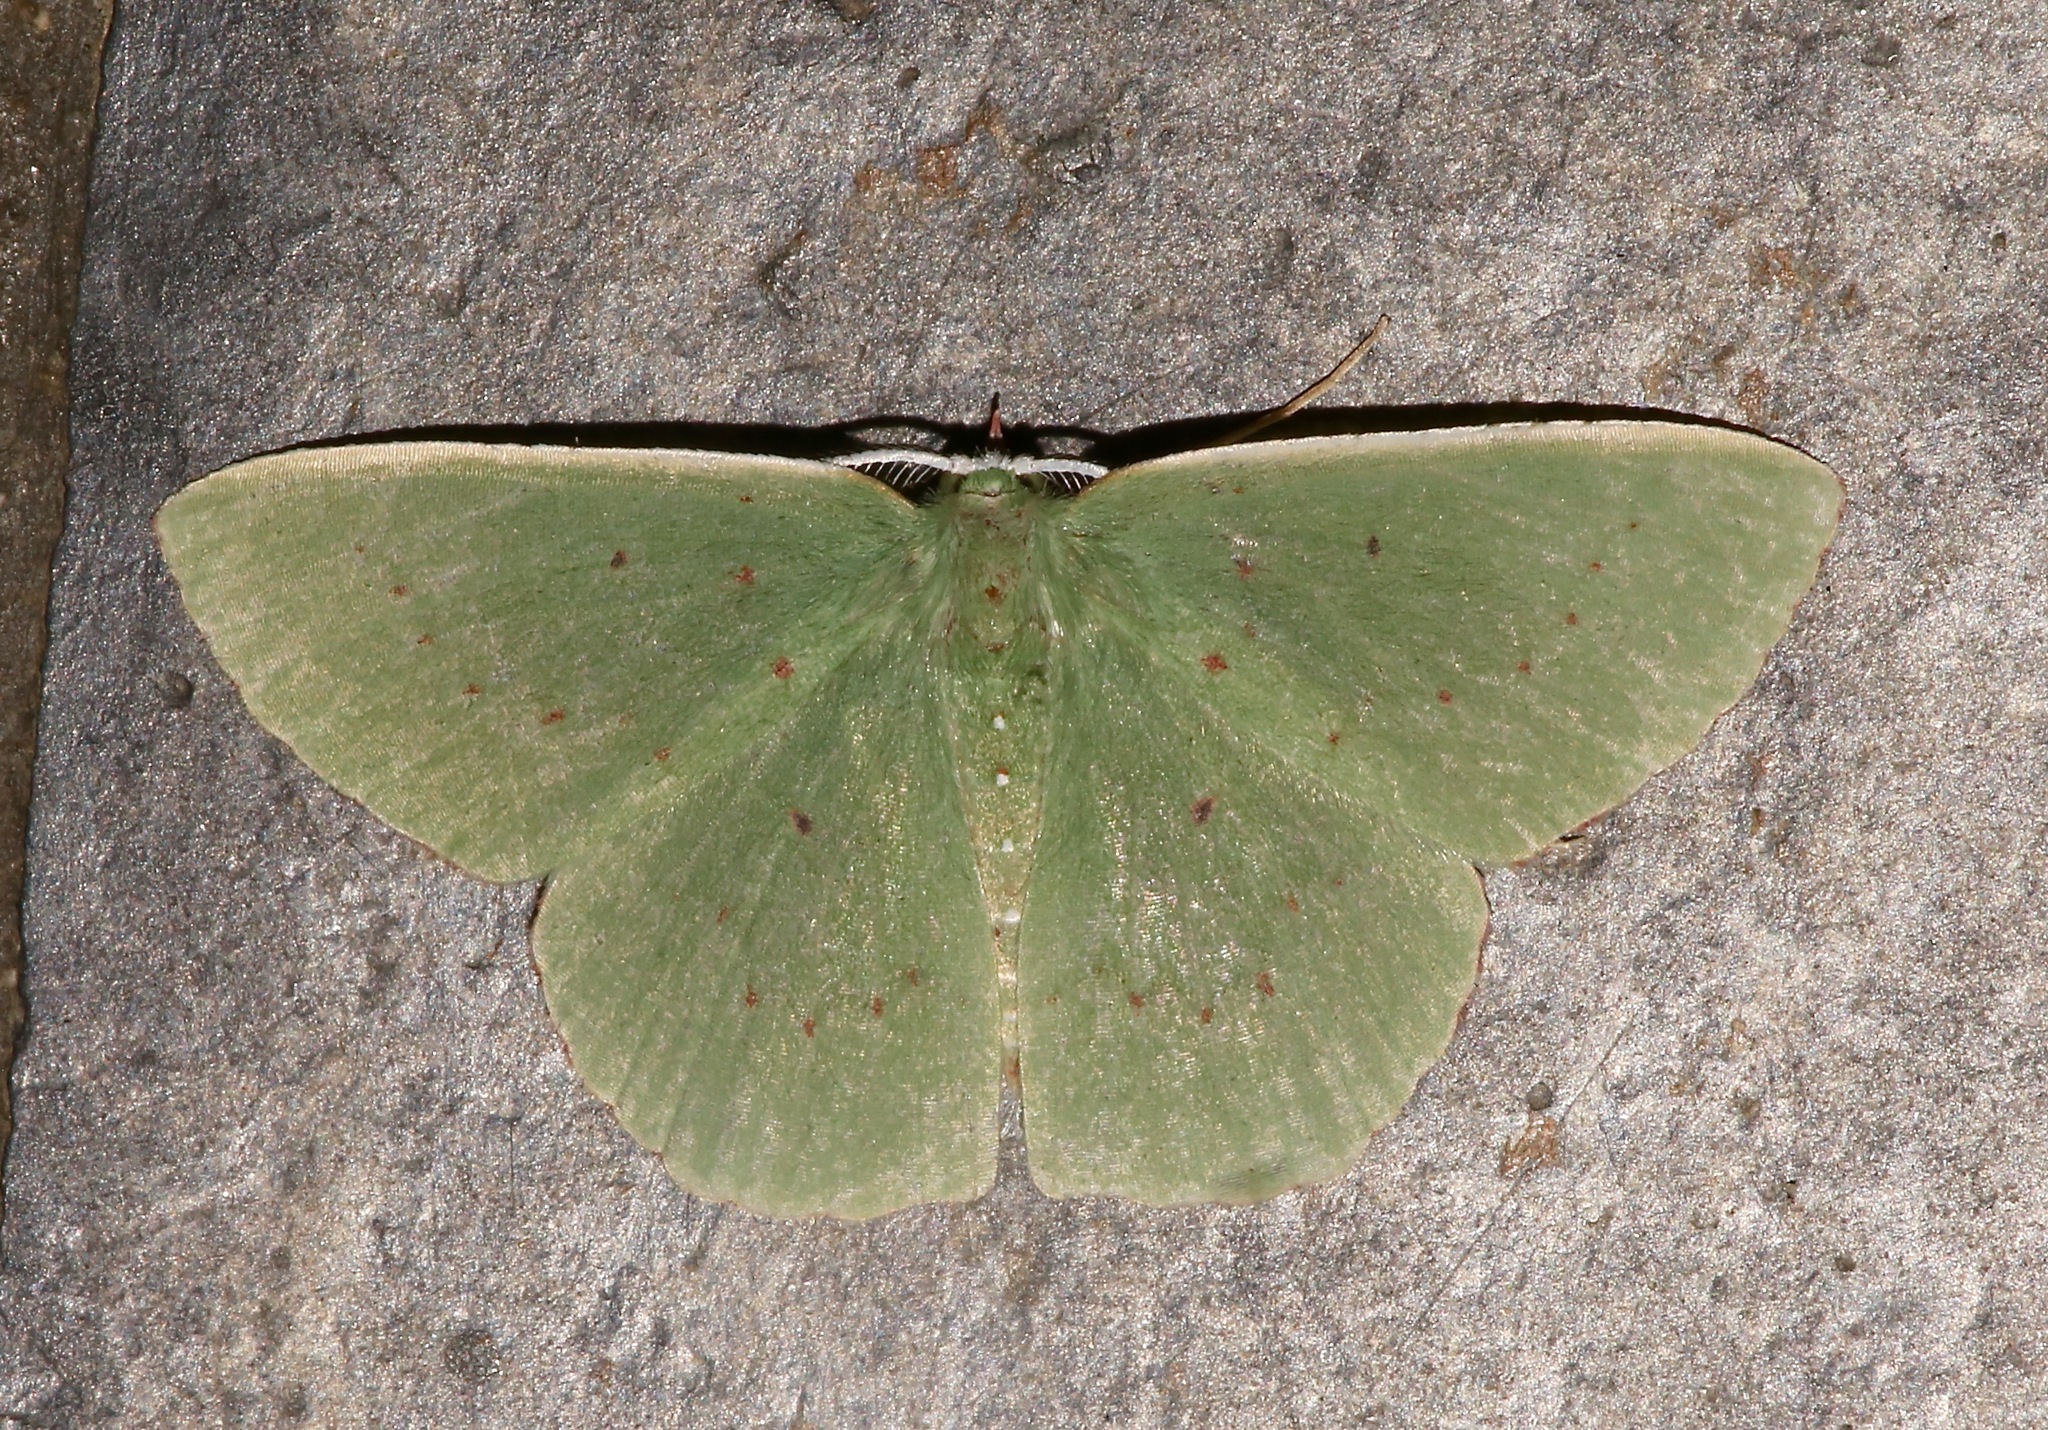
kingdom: Animalia
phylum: Arthropoda
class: Insecta
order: Lepidoptera
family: Geometridae
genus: Phrudocentra
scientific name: Phrudocentra centrifugaria
